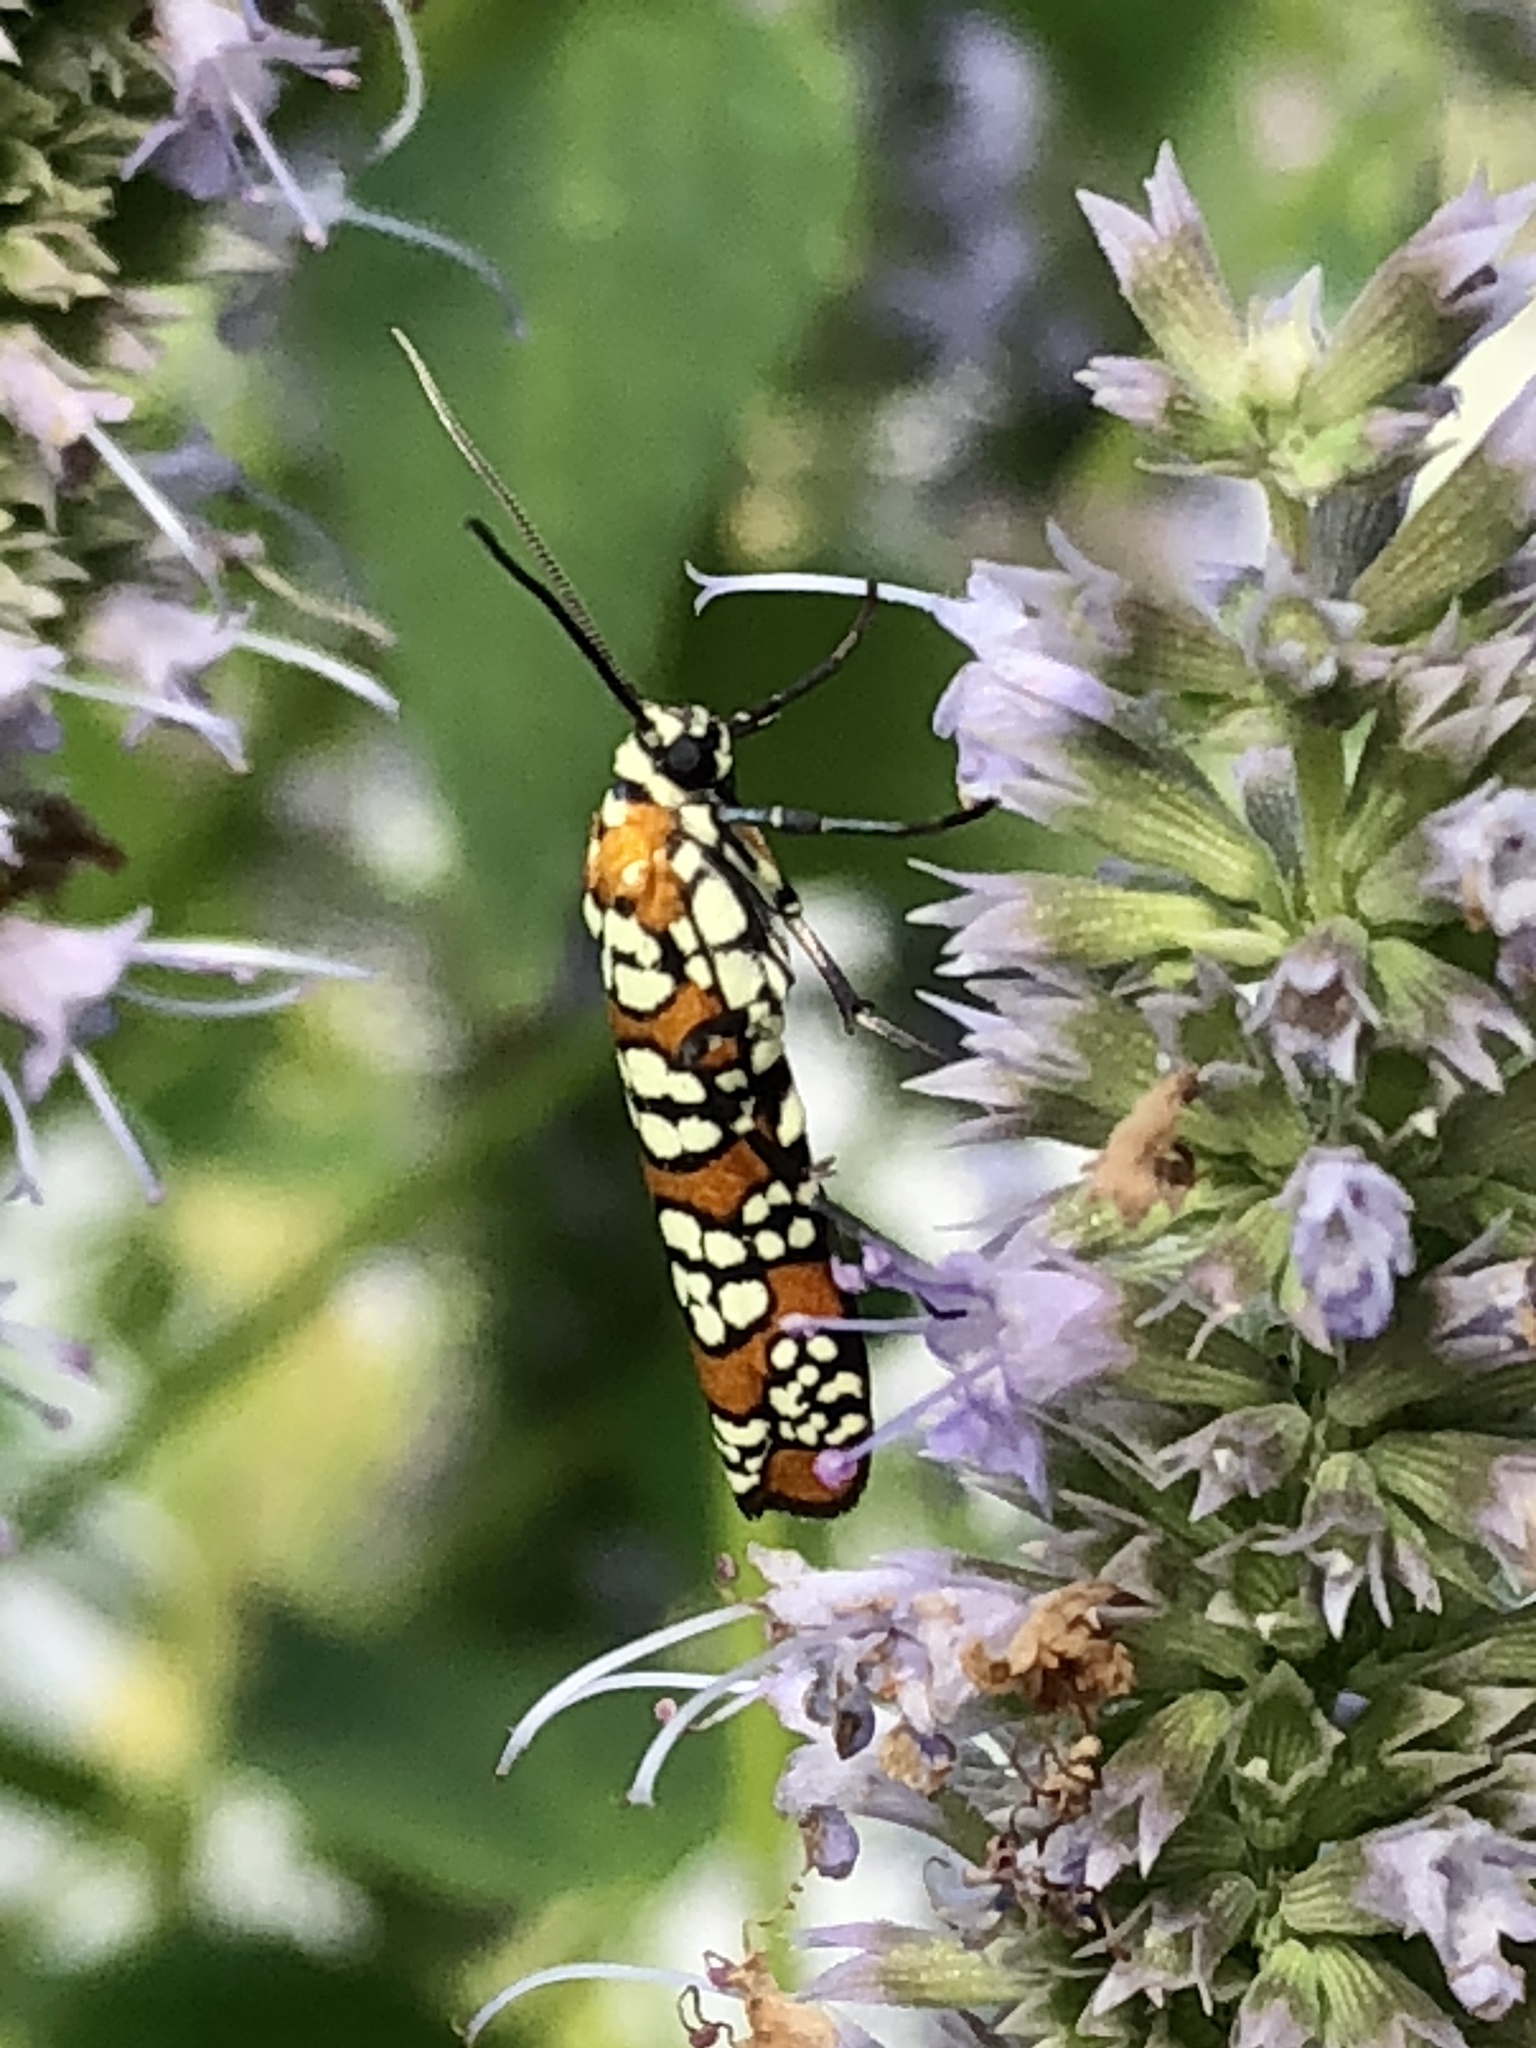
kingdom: Animalia
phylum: Arthropoda
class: Insecta
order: Lepidoptera
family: Attevidae
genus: Atteva
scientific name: Atteva punctella
